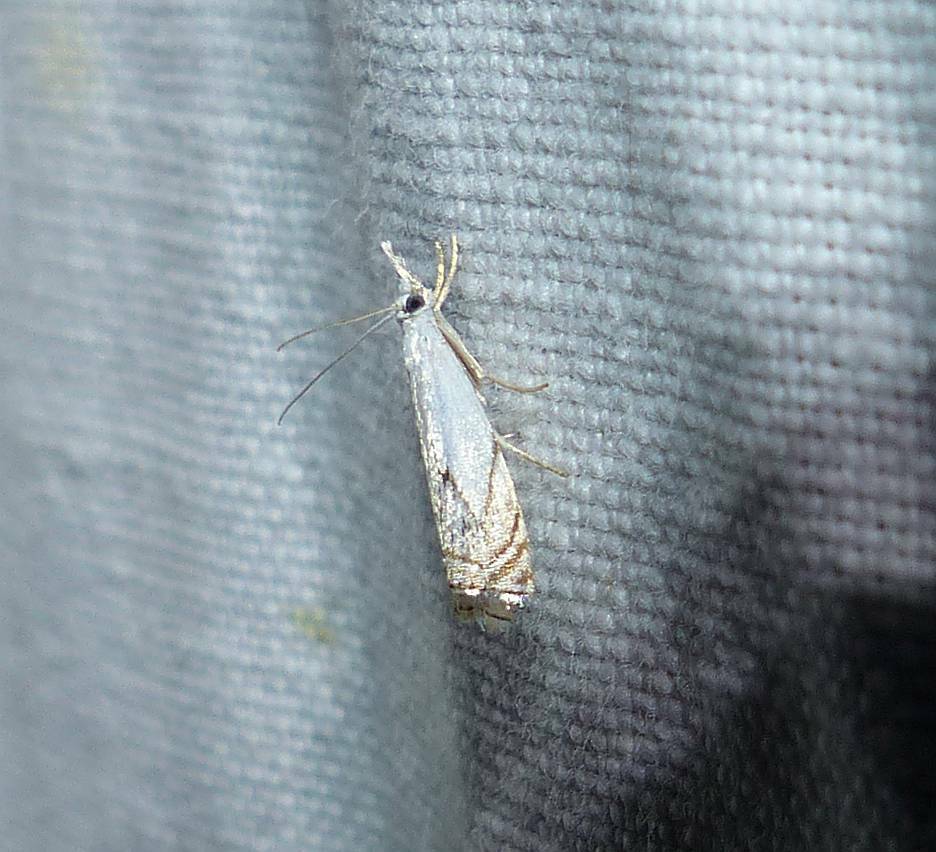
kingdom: Animalia
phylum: Arthropoda
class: Insecta
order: Lepidoptera
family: Crambidae
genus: Crambus
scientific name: Crambus albellus
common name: Small white grass-veneer
